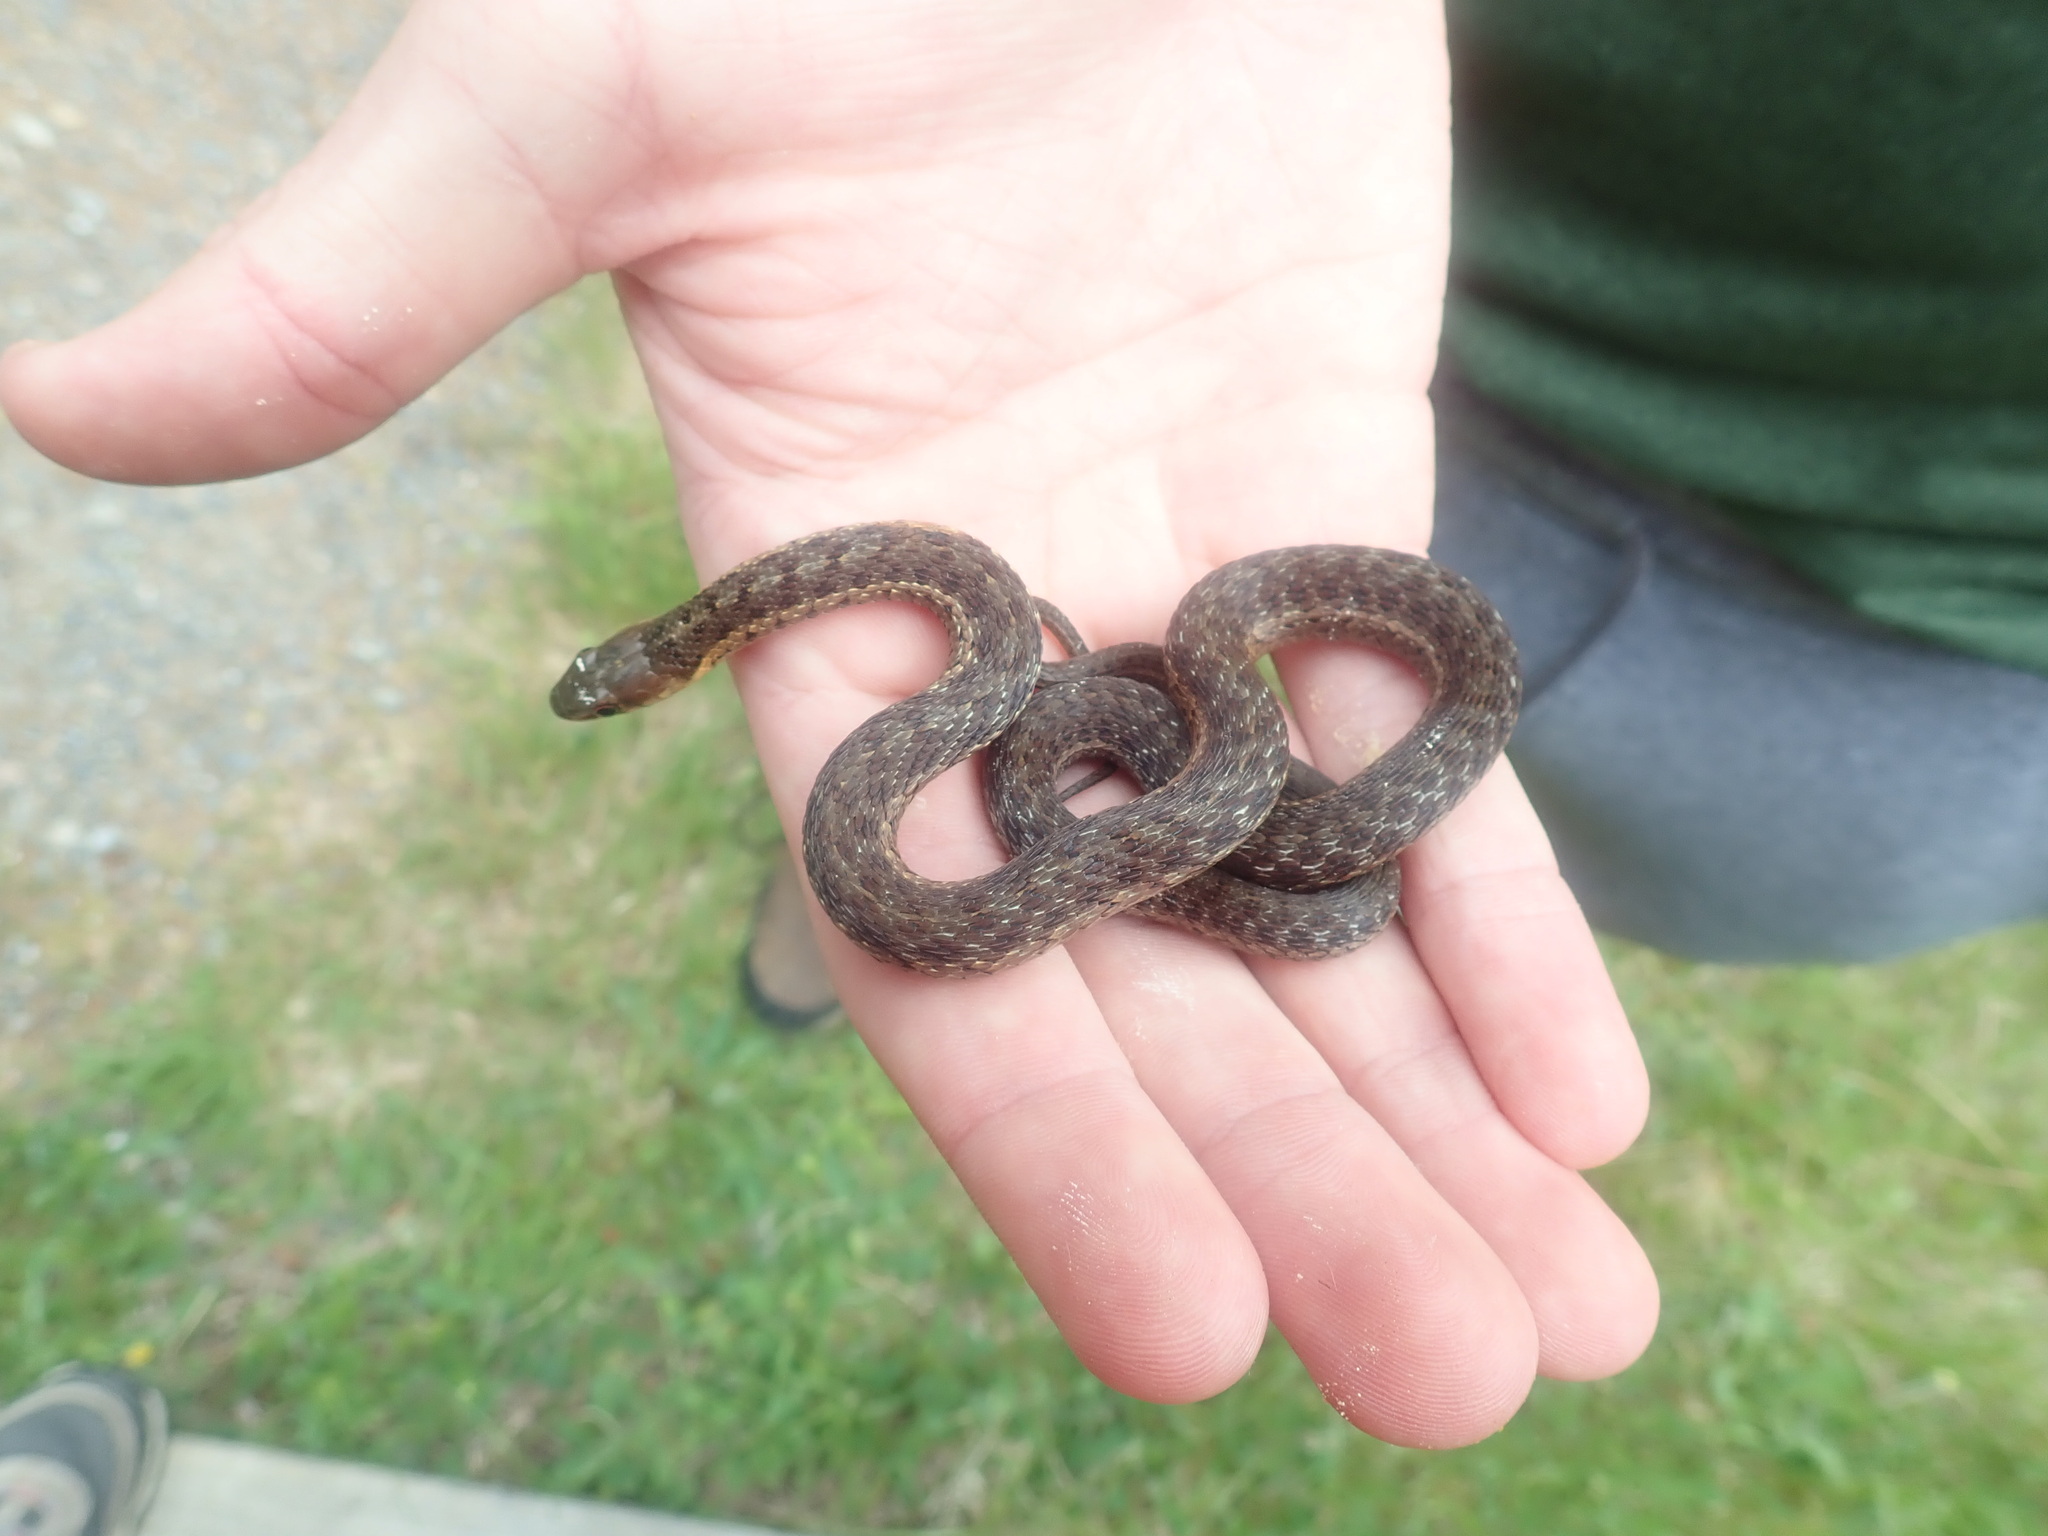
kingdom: Animalia
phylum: Chordata
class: Squamata
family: Colubridae
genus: Thamnophis
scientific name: Thamnophis sirtalis
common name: Common garter snake
